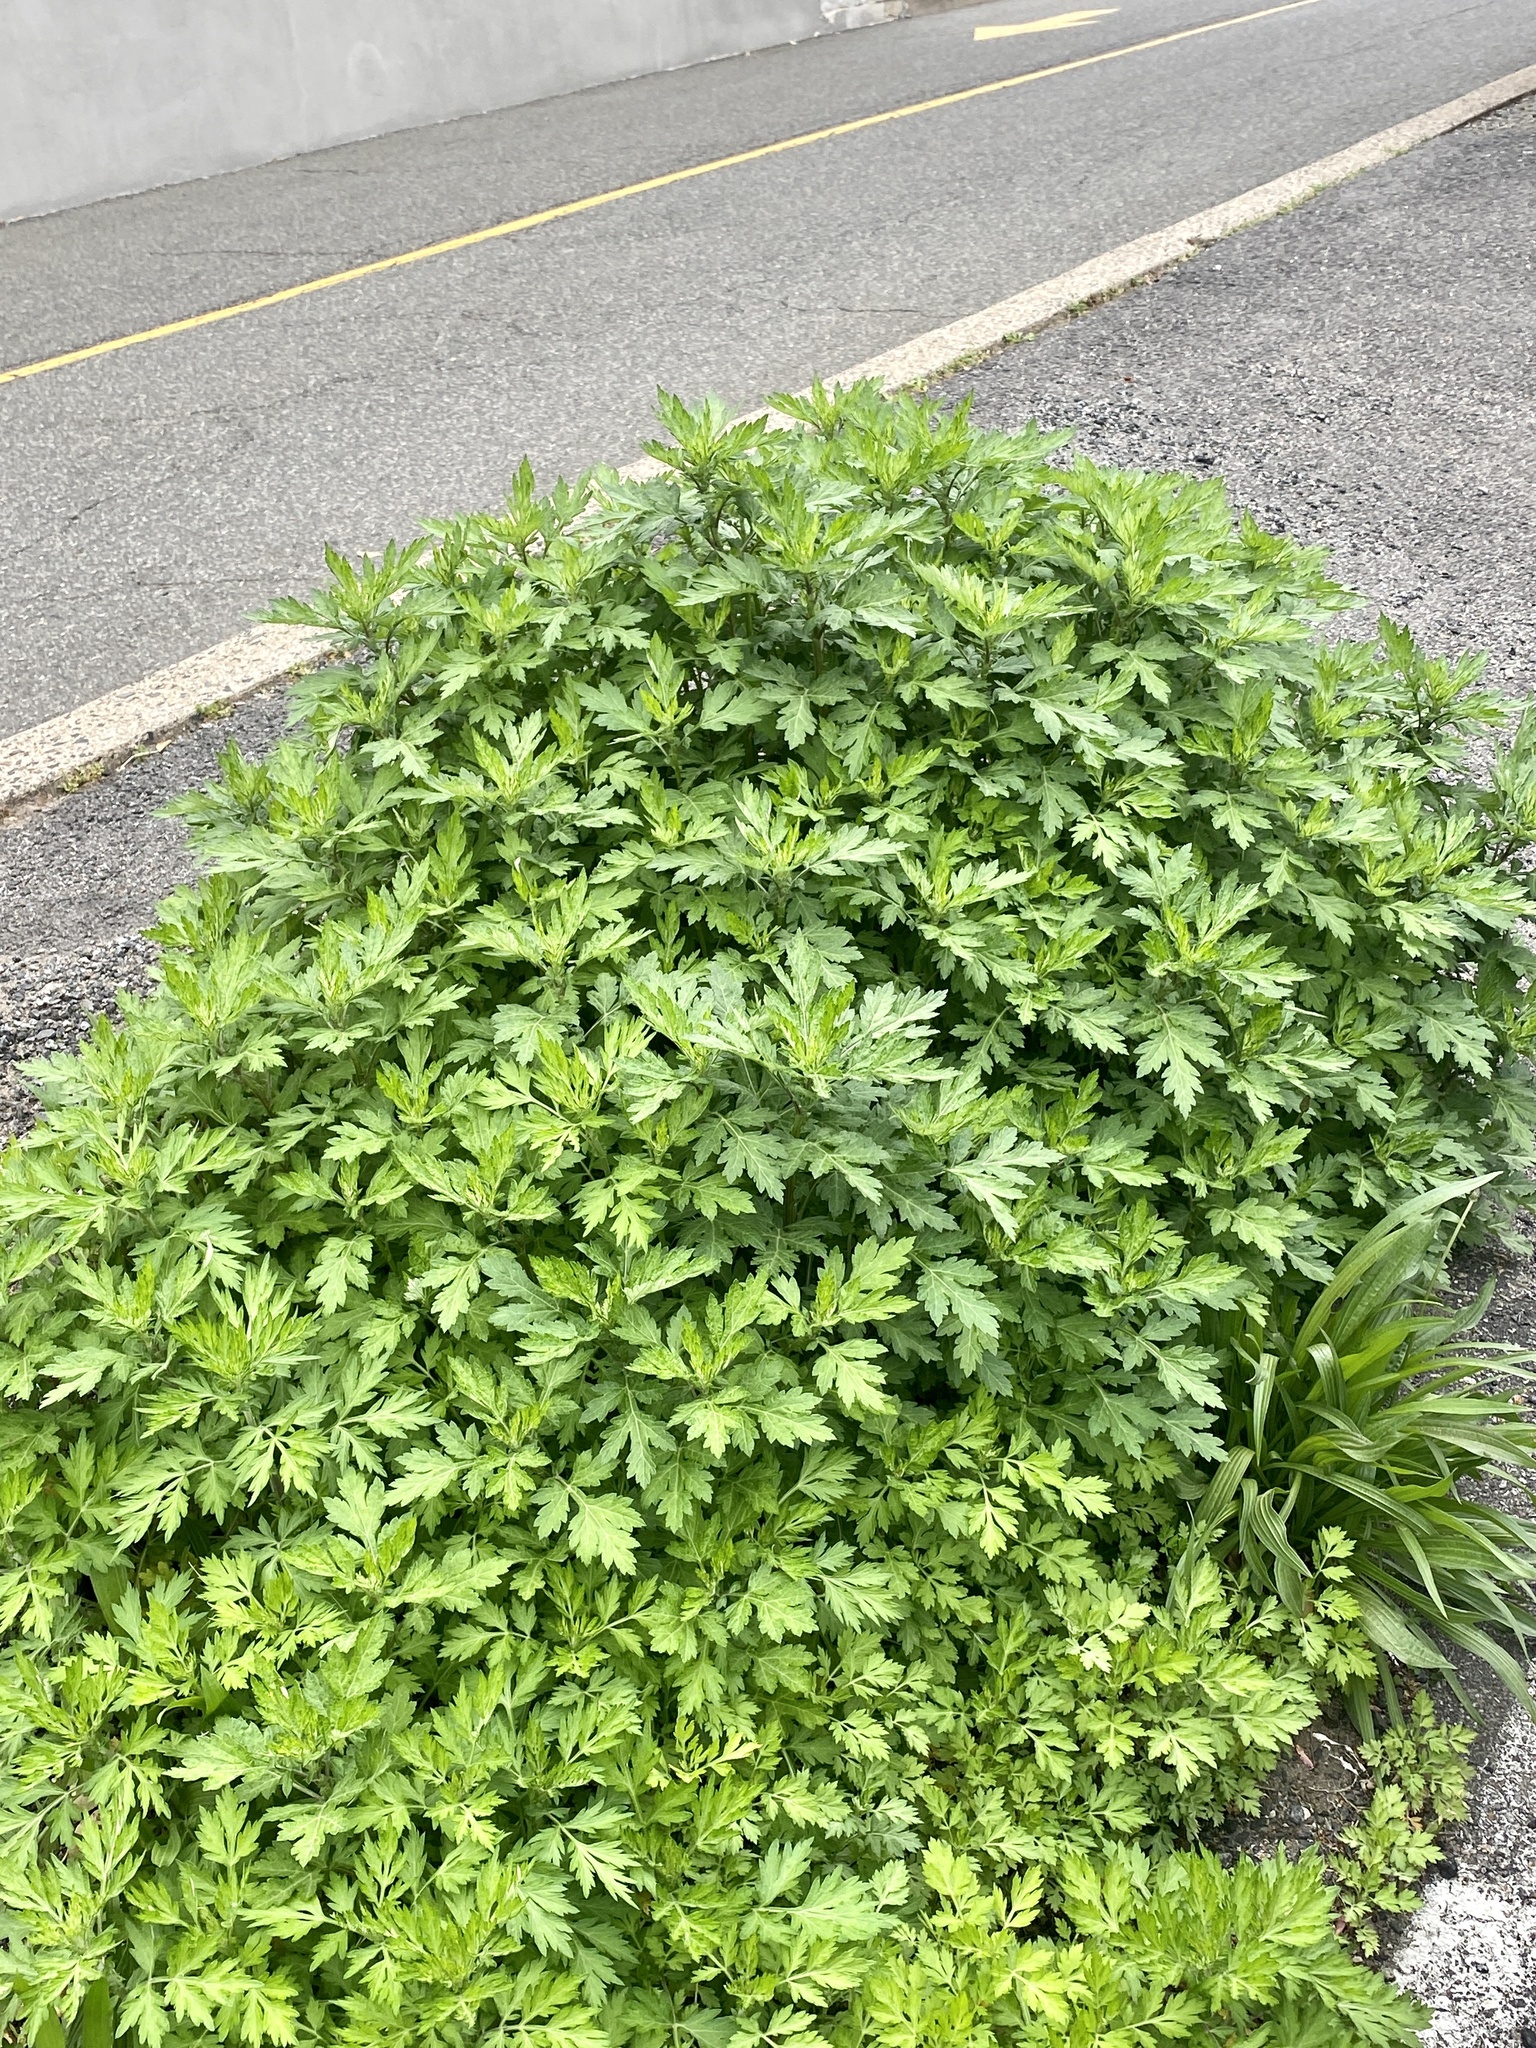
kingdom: Plantae
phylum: Tracheophyta
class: Magnoliopsida
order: Asterales
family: Asteraceae
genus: Artemisia
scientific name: Artemisia vulgaris
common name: Mugwort
